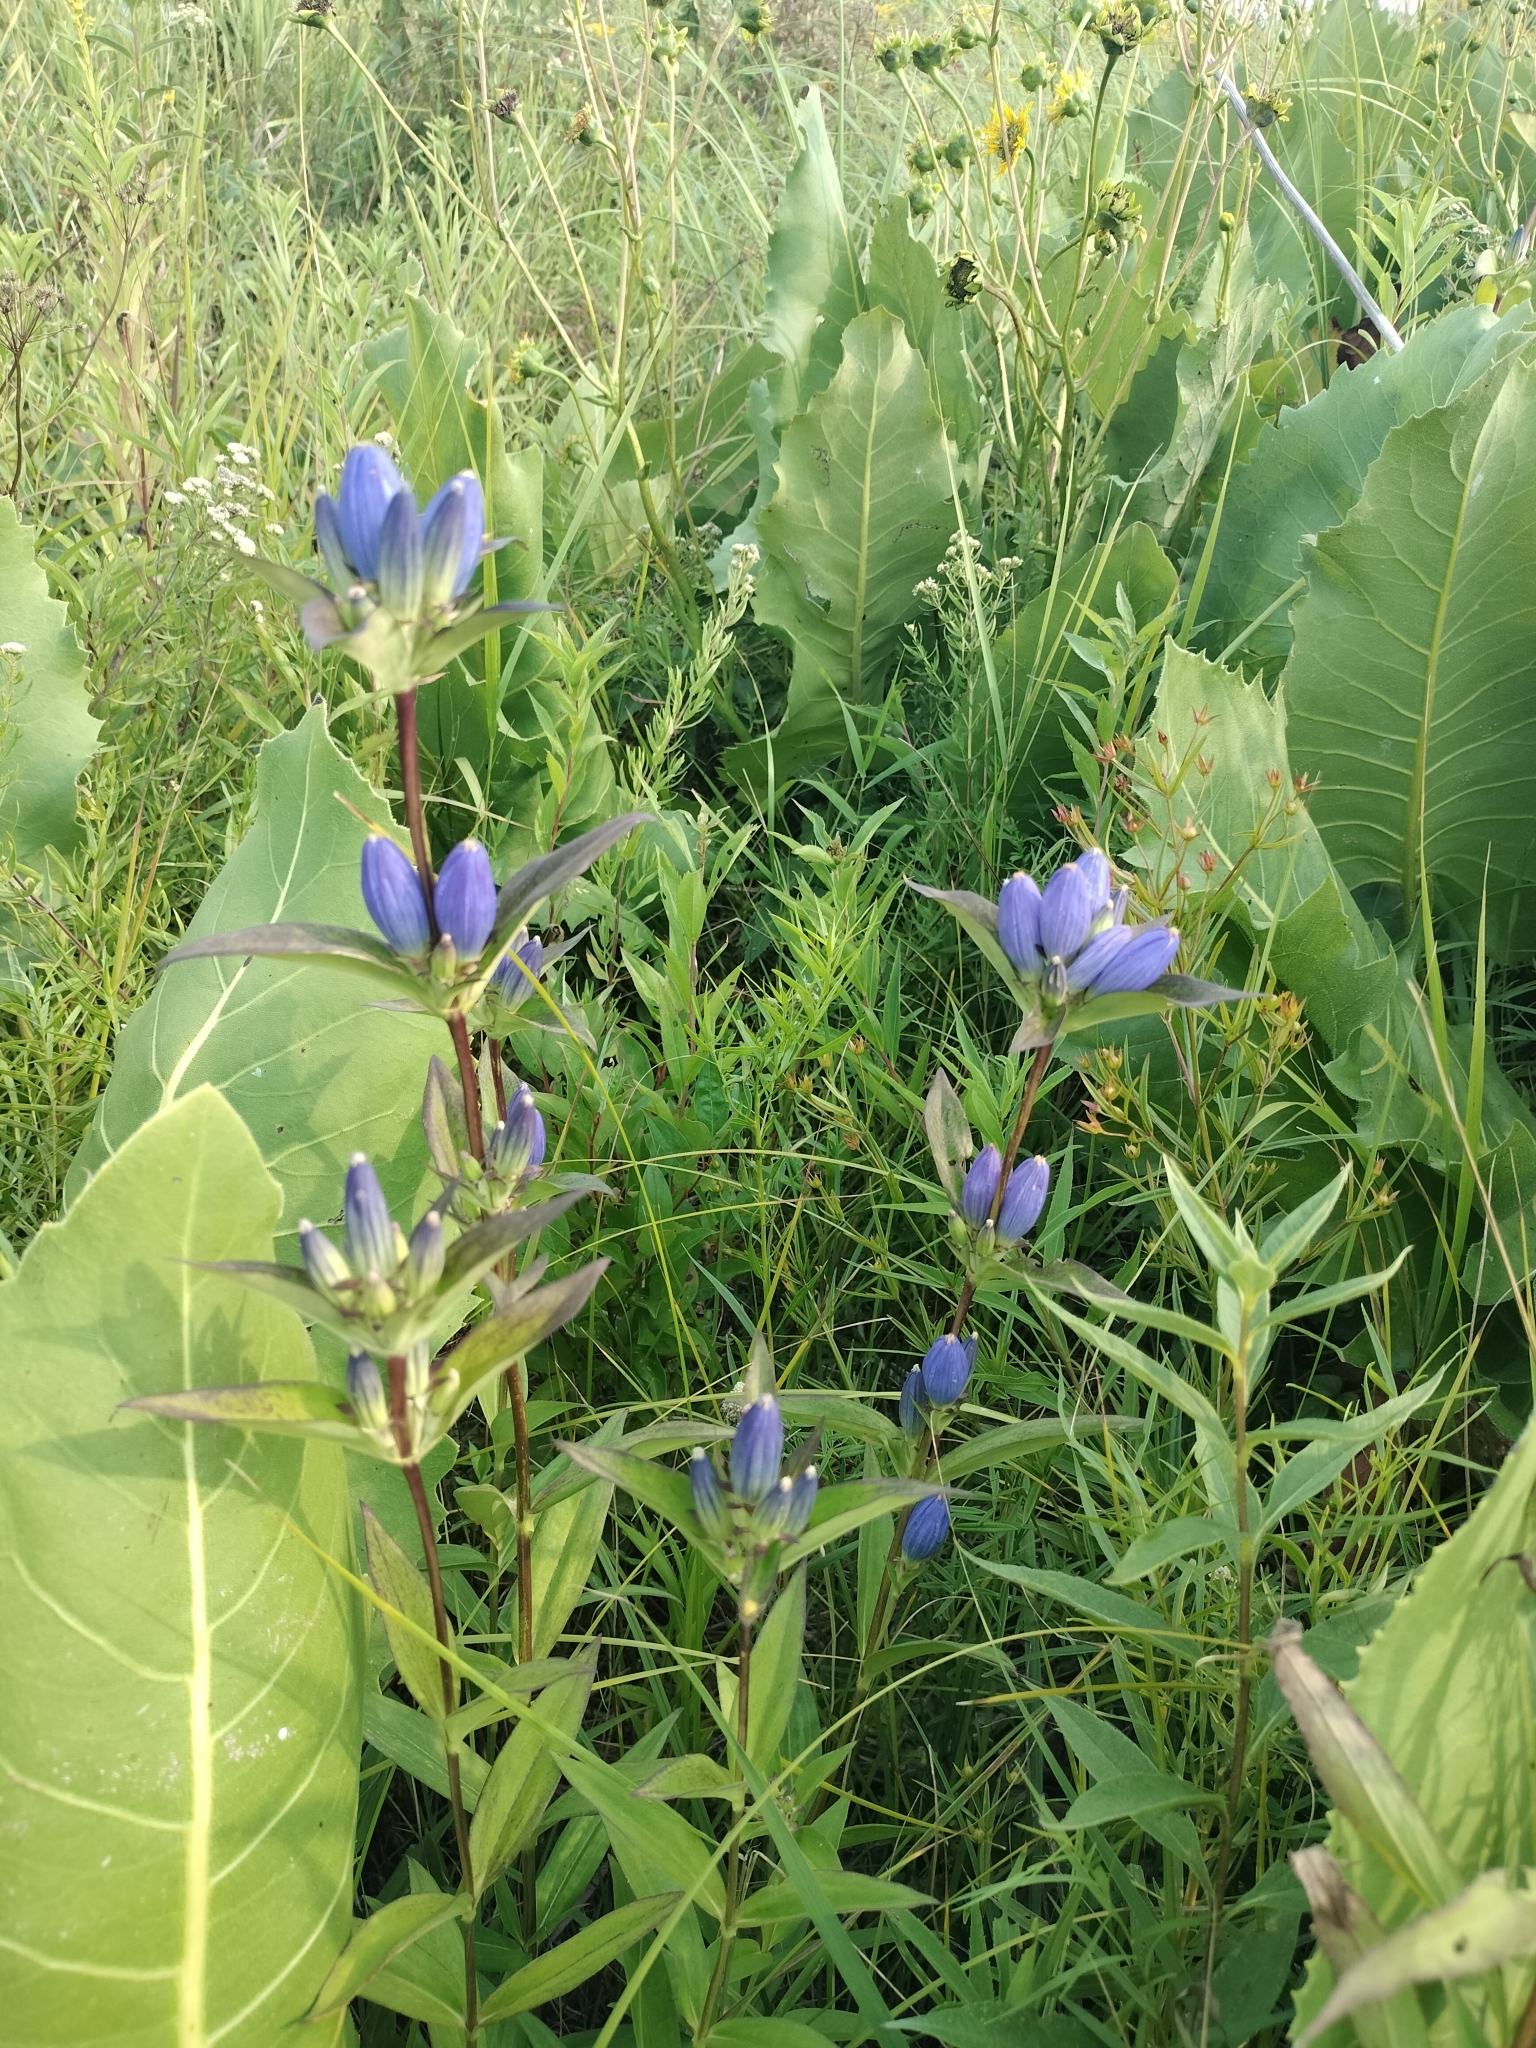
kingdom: Plantae
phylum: Tracheophyta
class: Magnoliopsida
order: Gentianales
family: Gentianaceae
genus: Gentiana
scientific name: Gentiana andrewsii
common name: Bottle gentian
